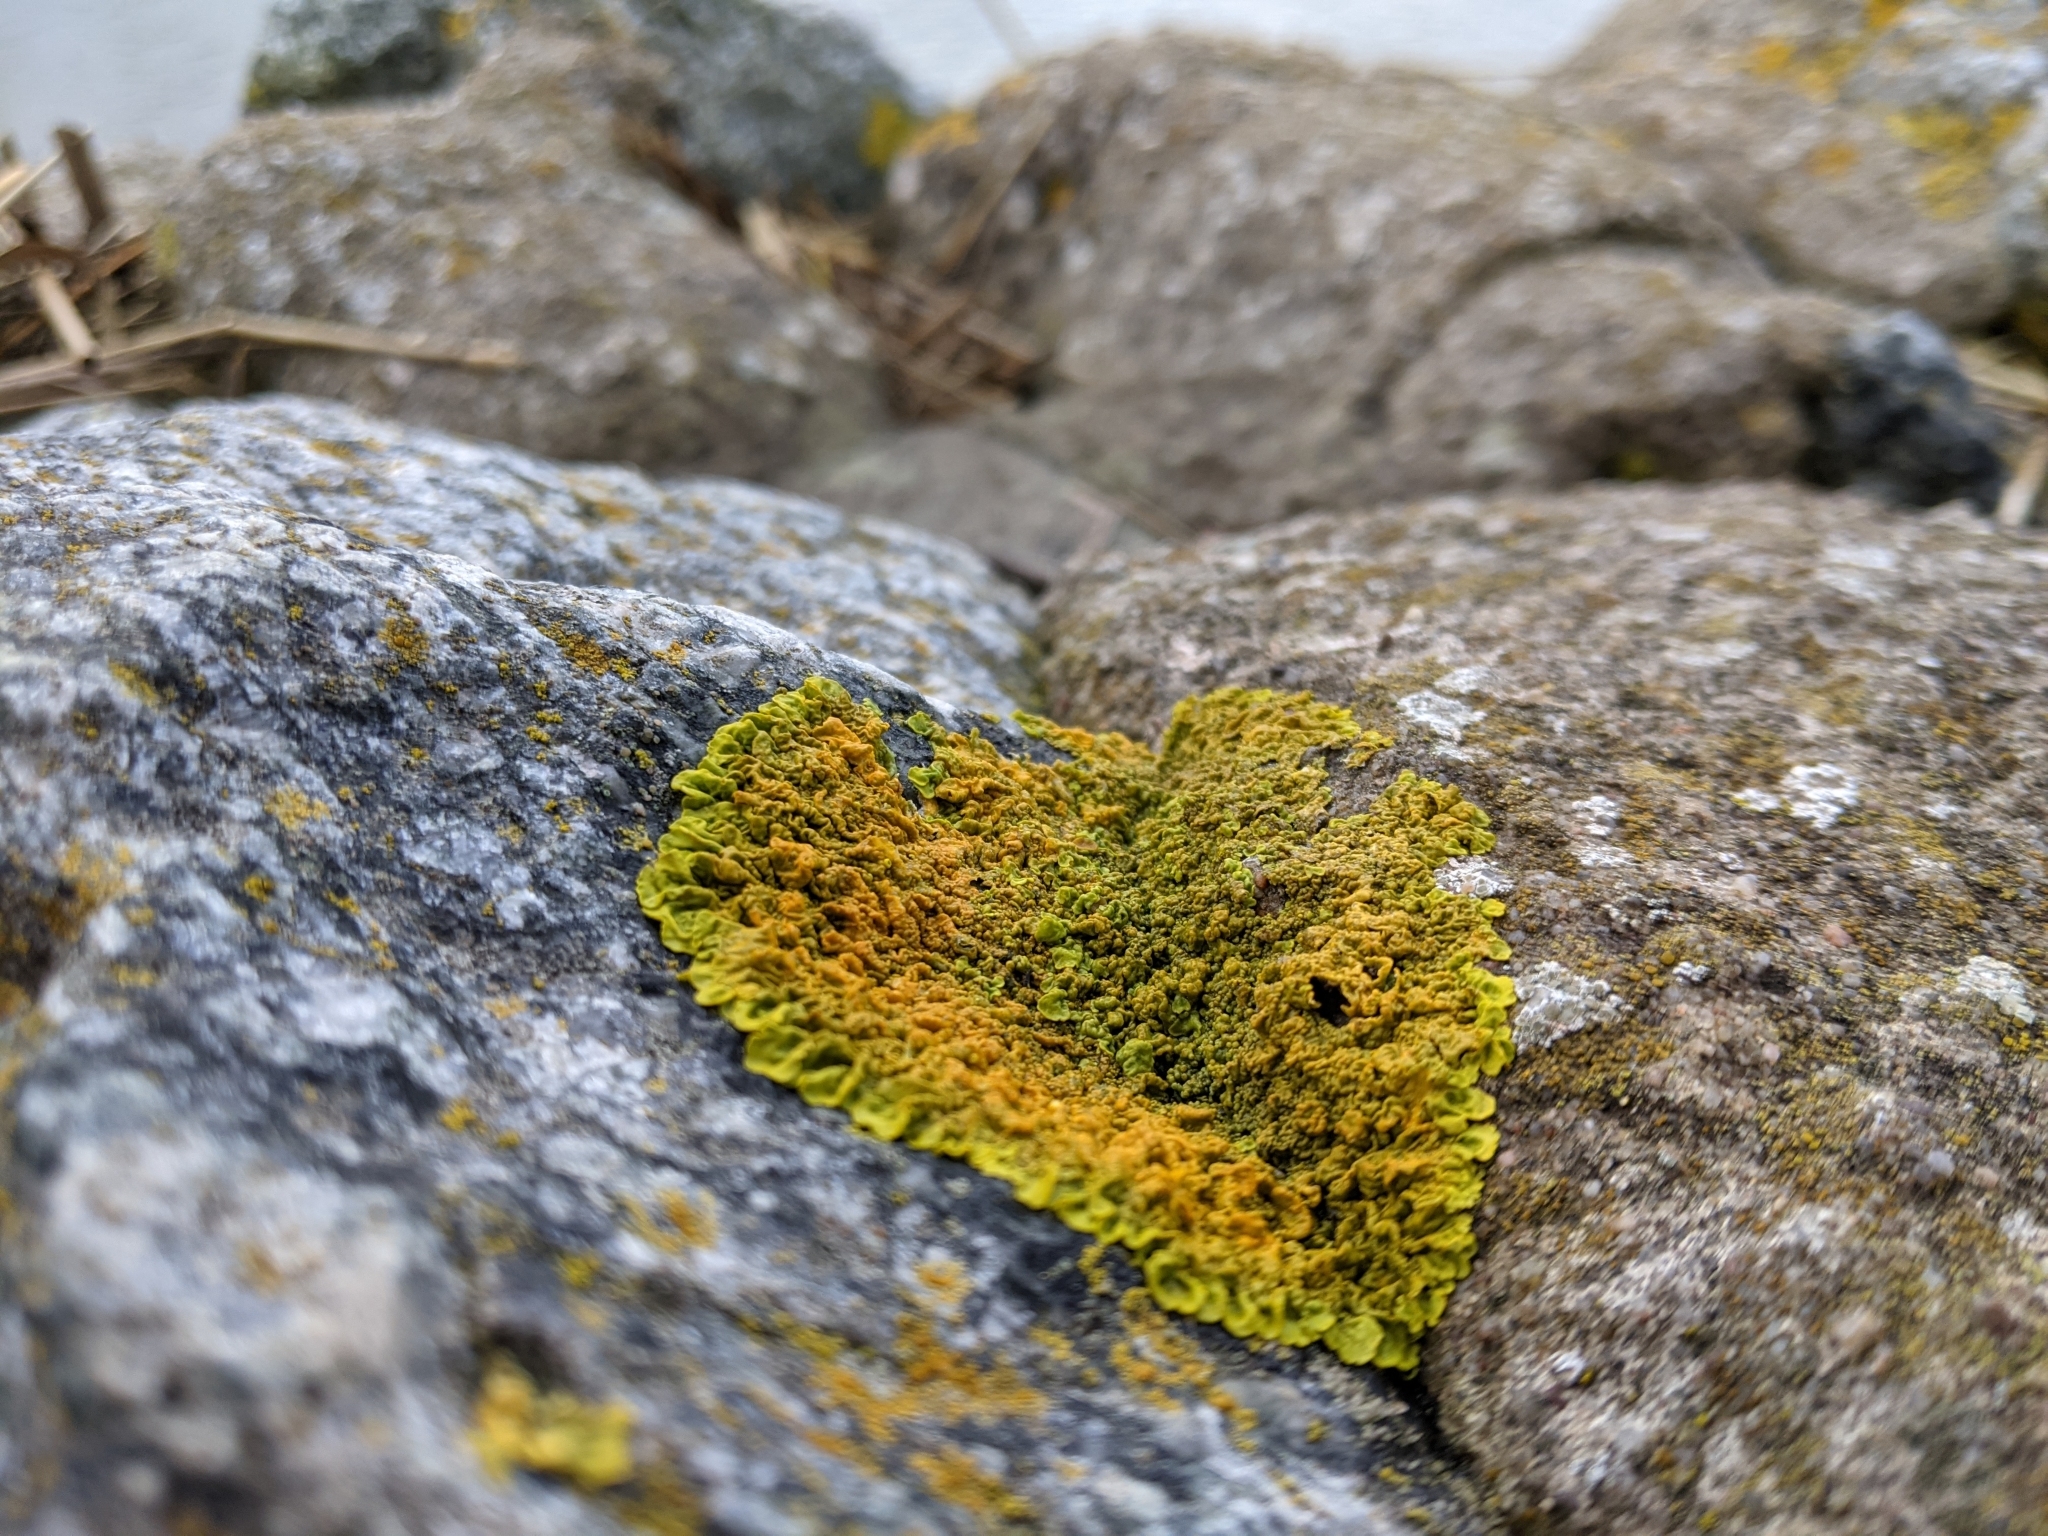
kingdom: Fungi
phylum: Ascomycota
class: Lecanoromycetes
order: Teloschistales
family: Teloschistaceae
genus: Xanthoria
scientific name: Xanthoria calcicola
